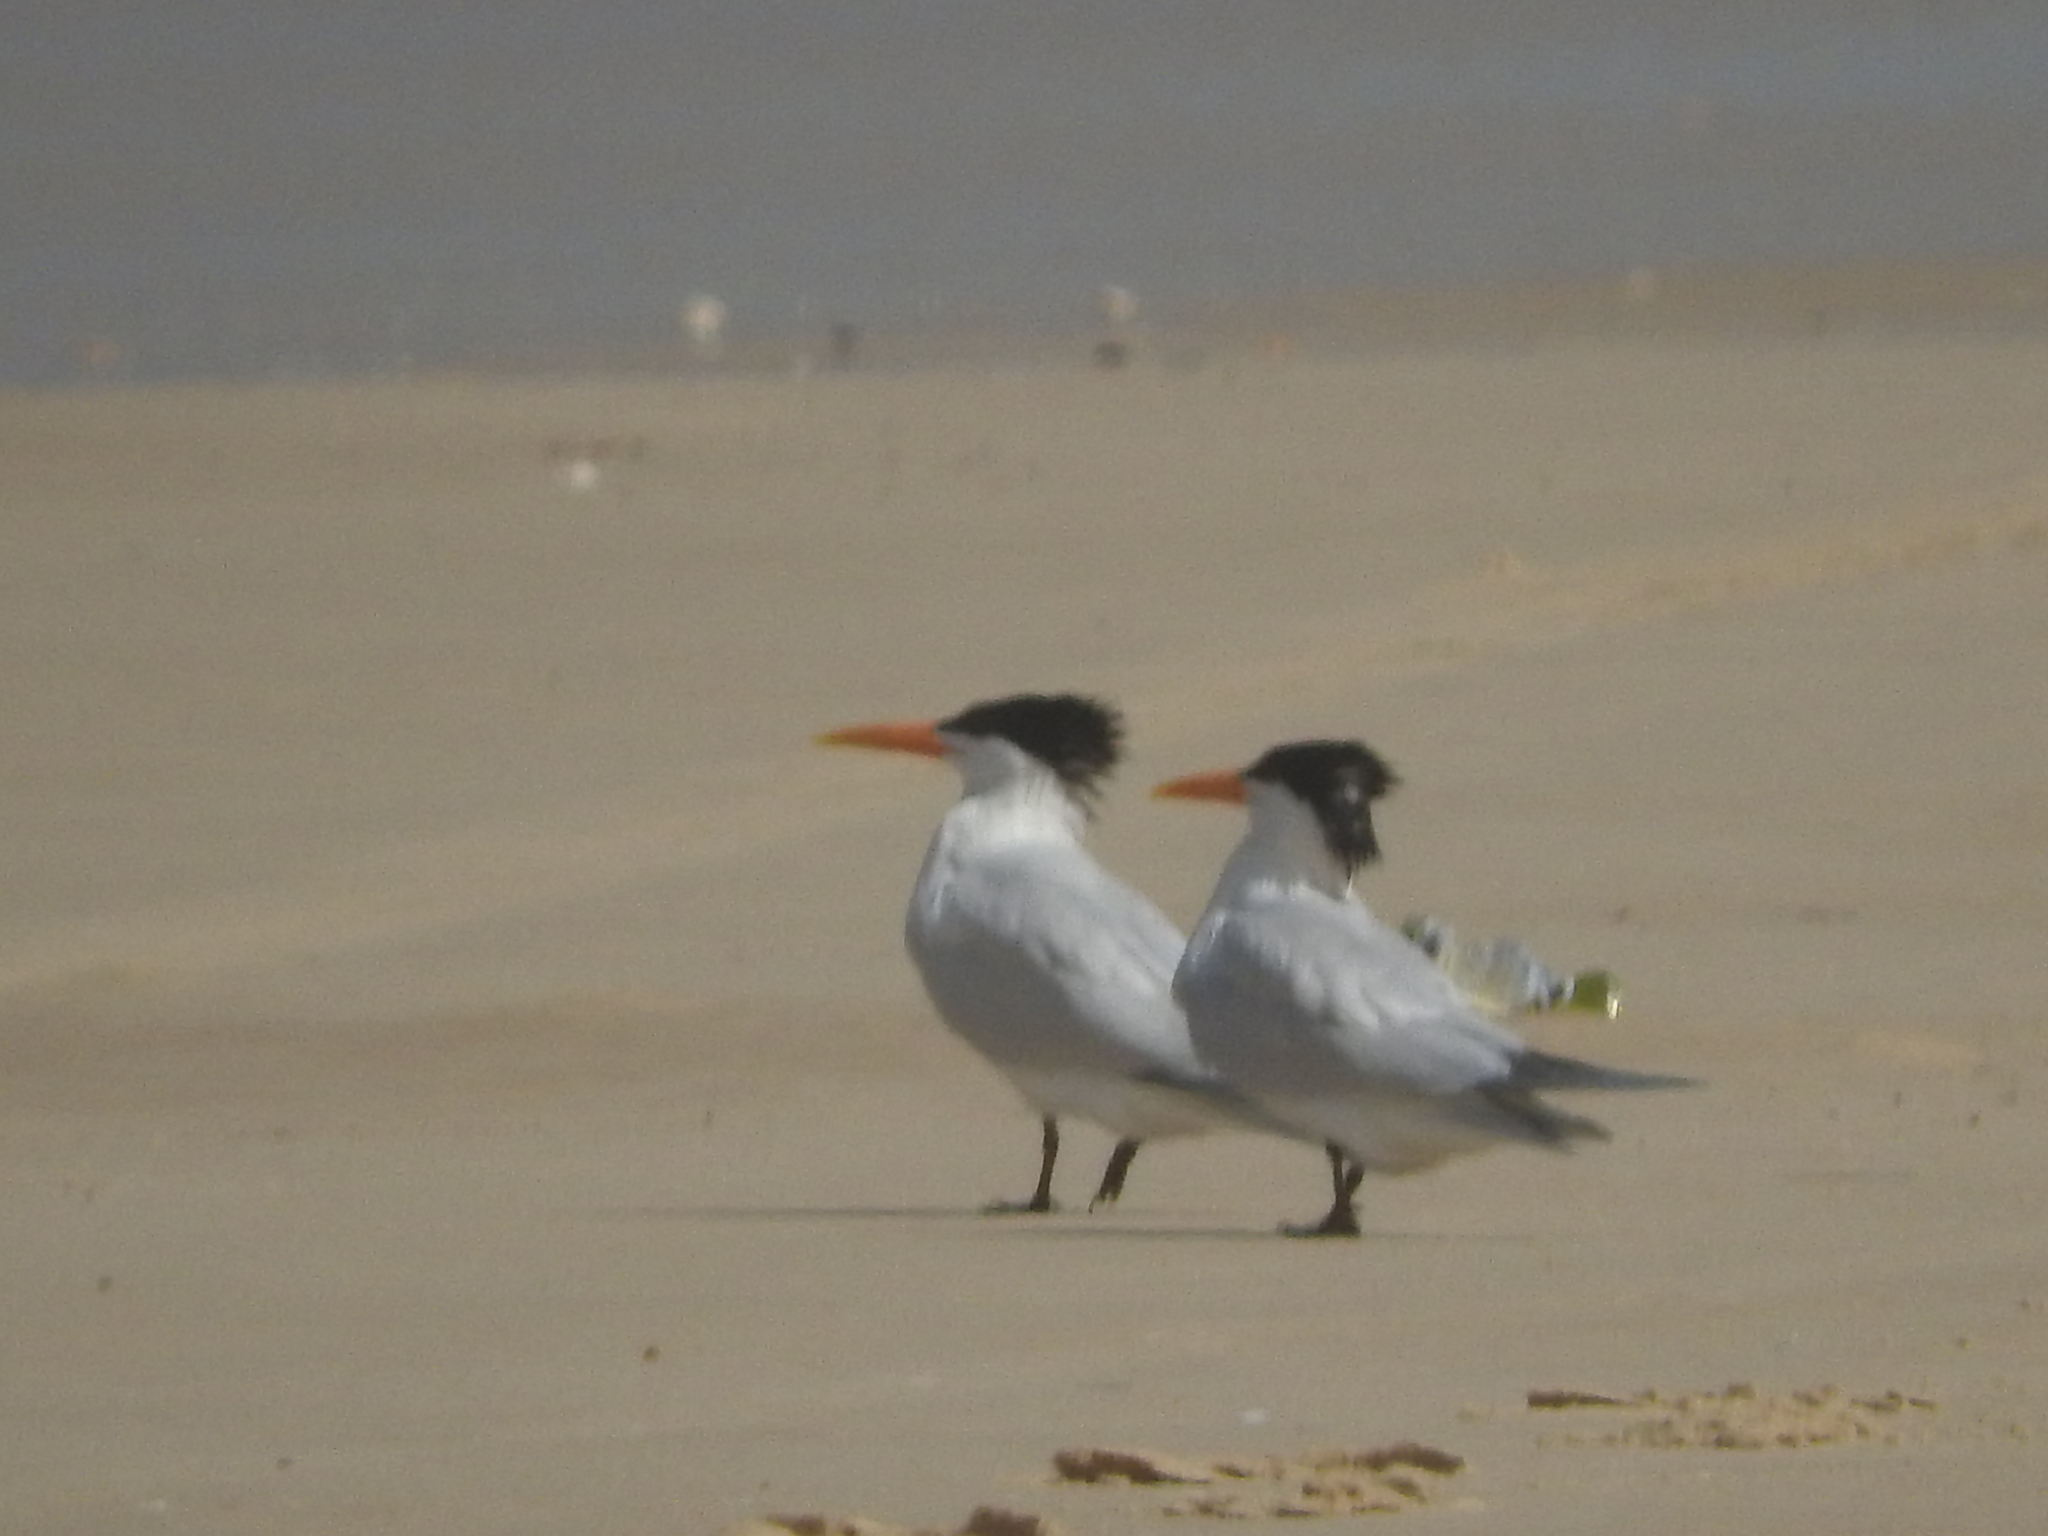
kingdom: Animalia
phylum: Chordata
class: Aves
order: Charadriiformes
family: Laridae
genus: Thalasseus
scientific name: Thalasseus albididorsalis
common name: West african crested tern
